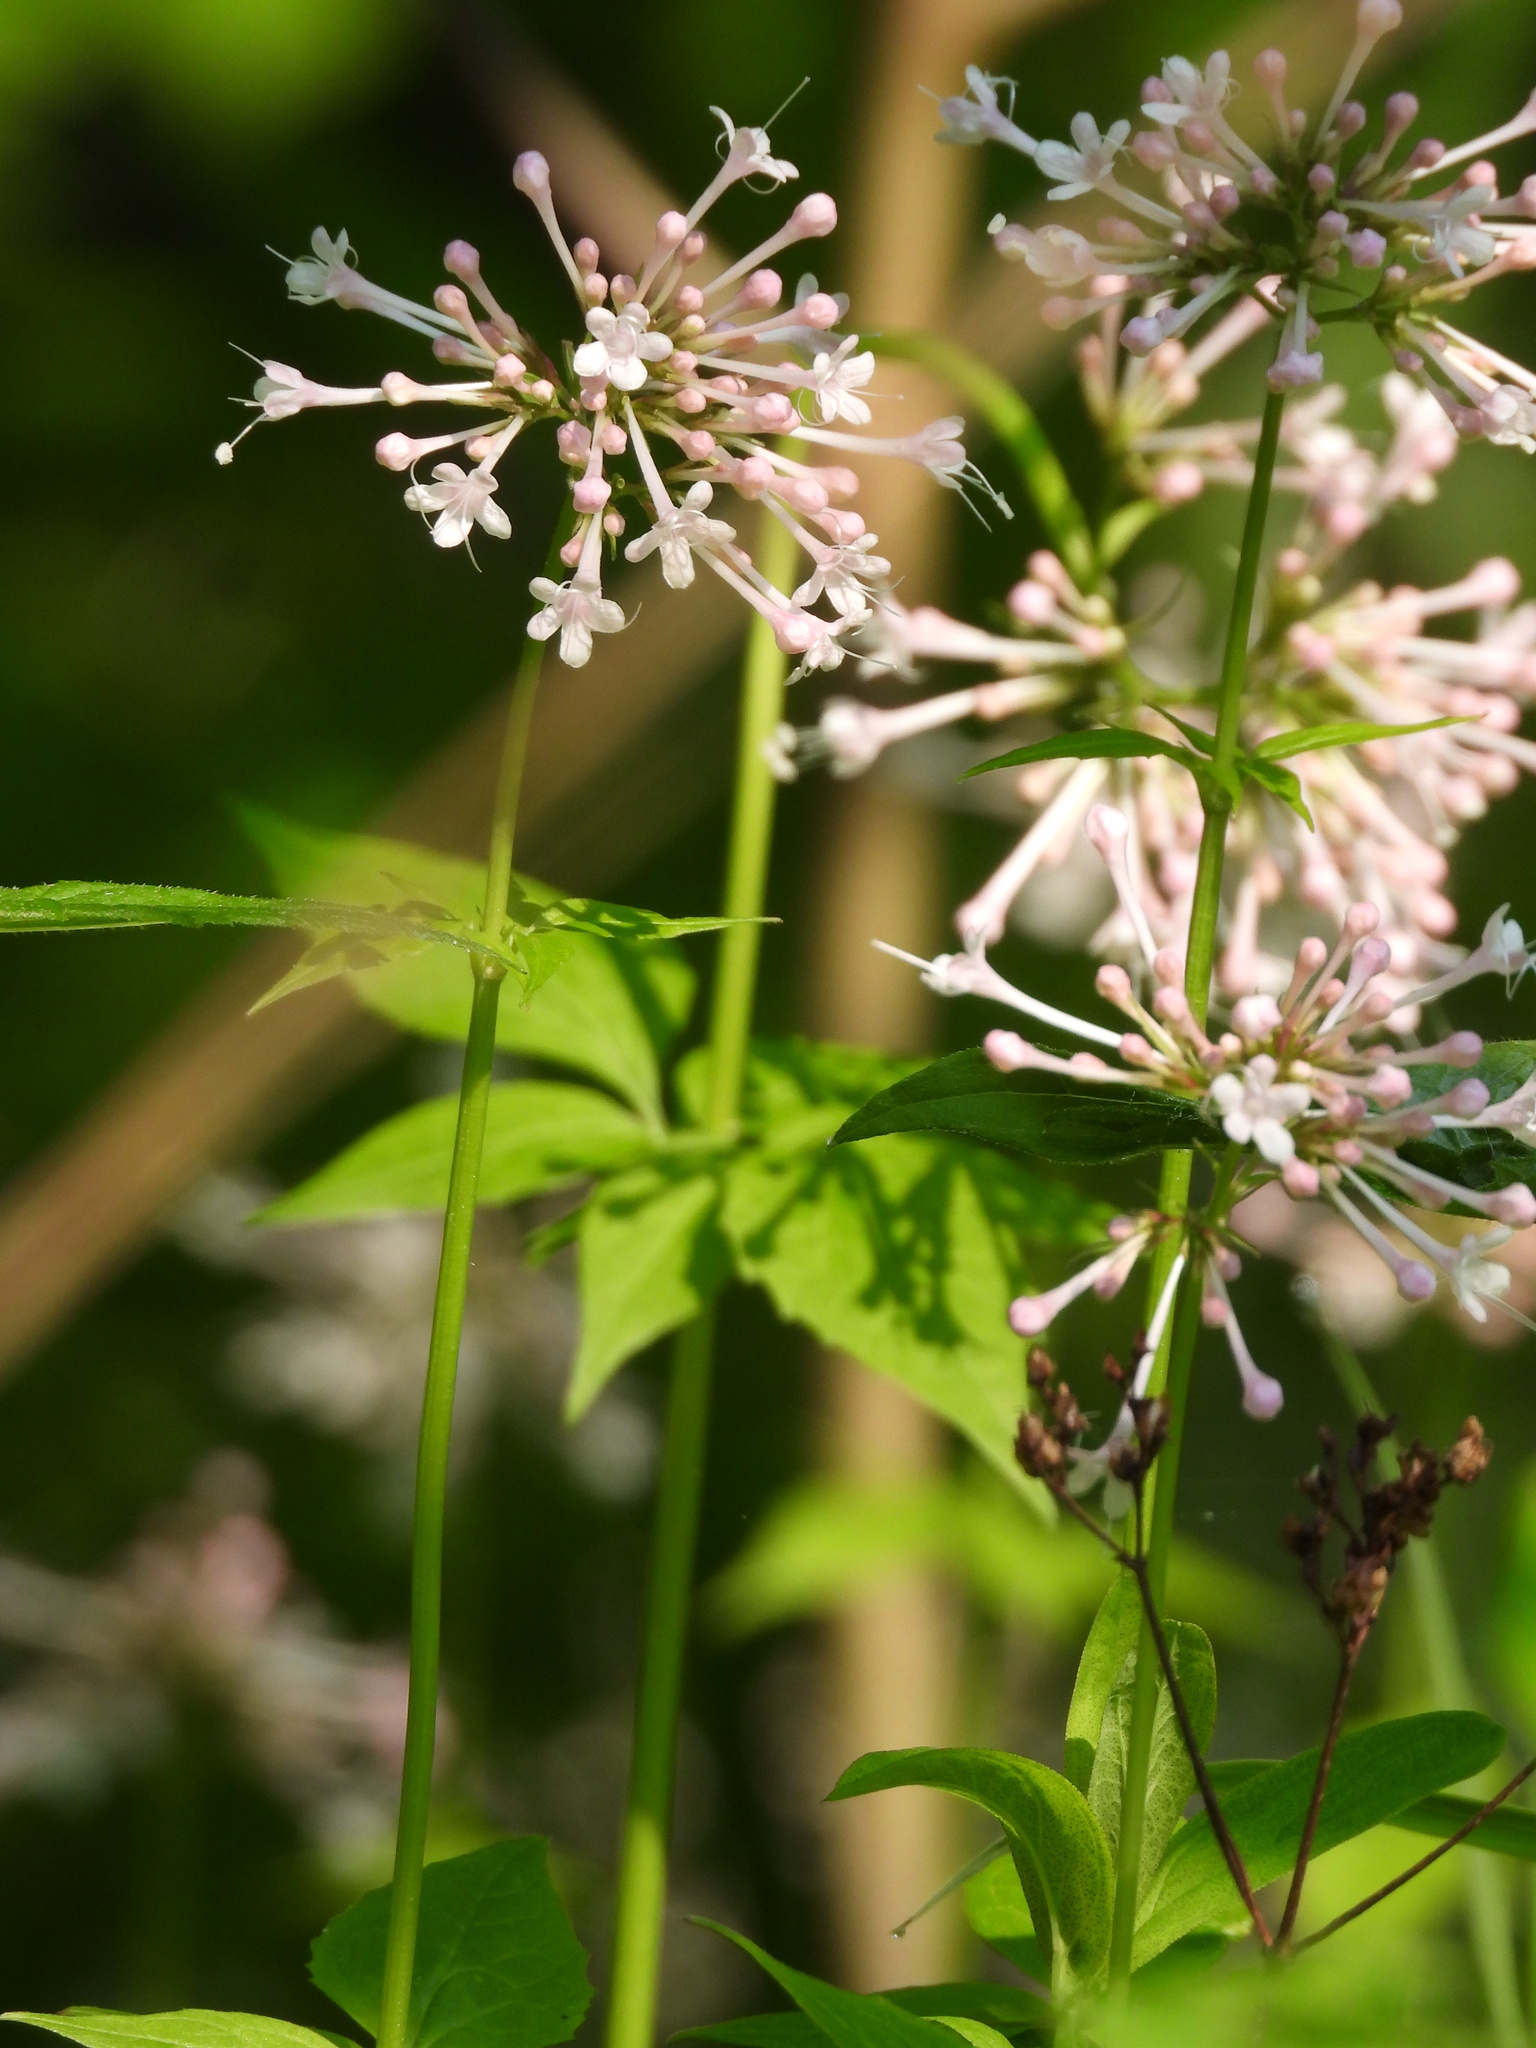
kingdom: Plantae
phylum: Tracheophyta
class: Magnoliopsida
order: Dipsacales
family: Caprifoliaceae
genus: Valeriana
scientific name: Valeriana pauciflora
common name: Long-tube valeriana
